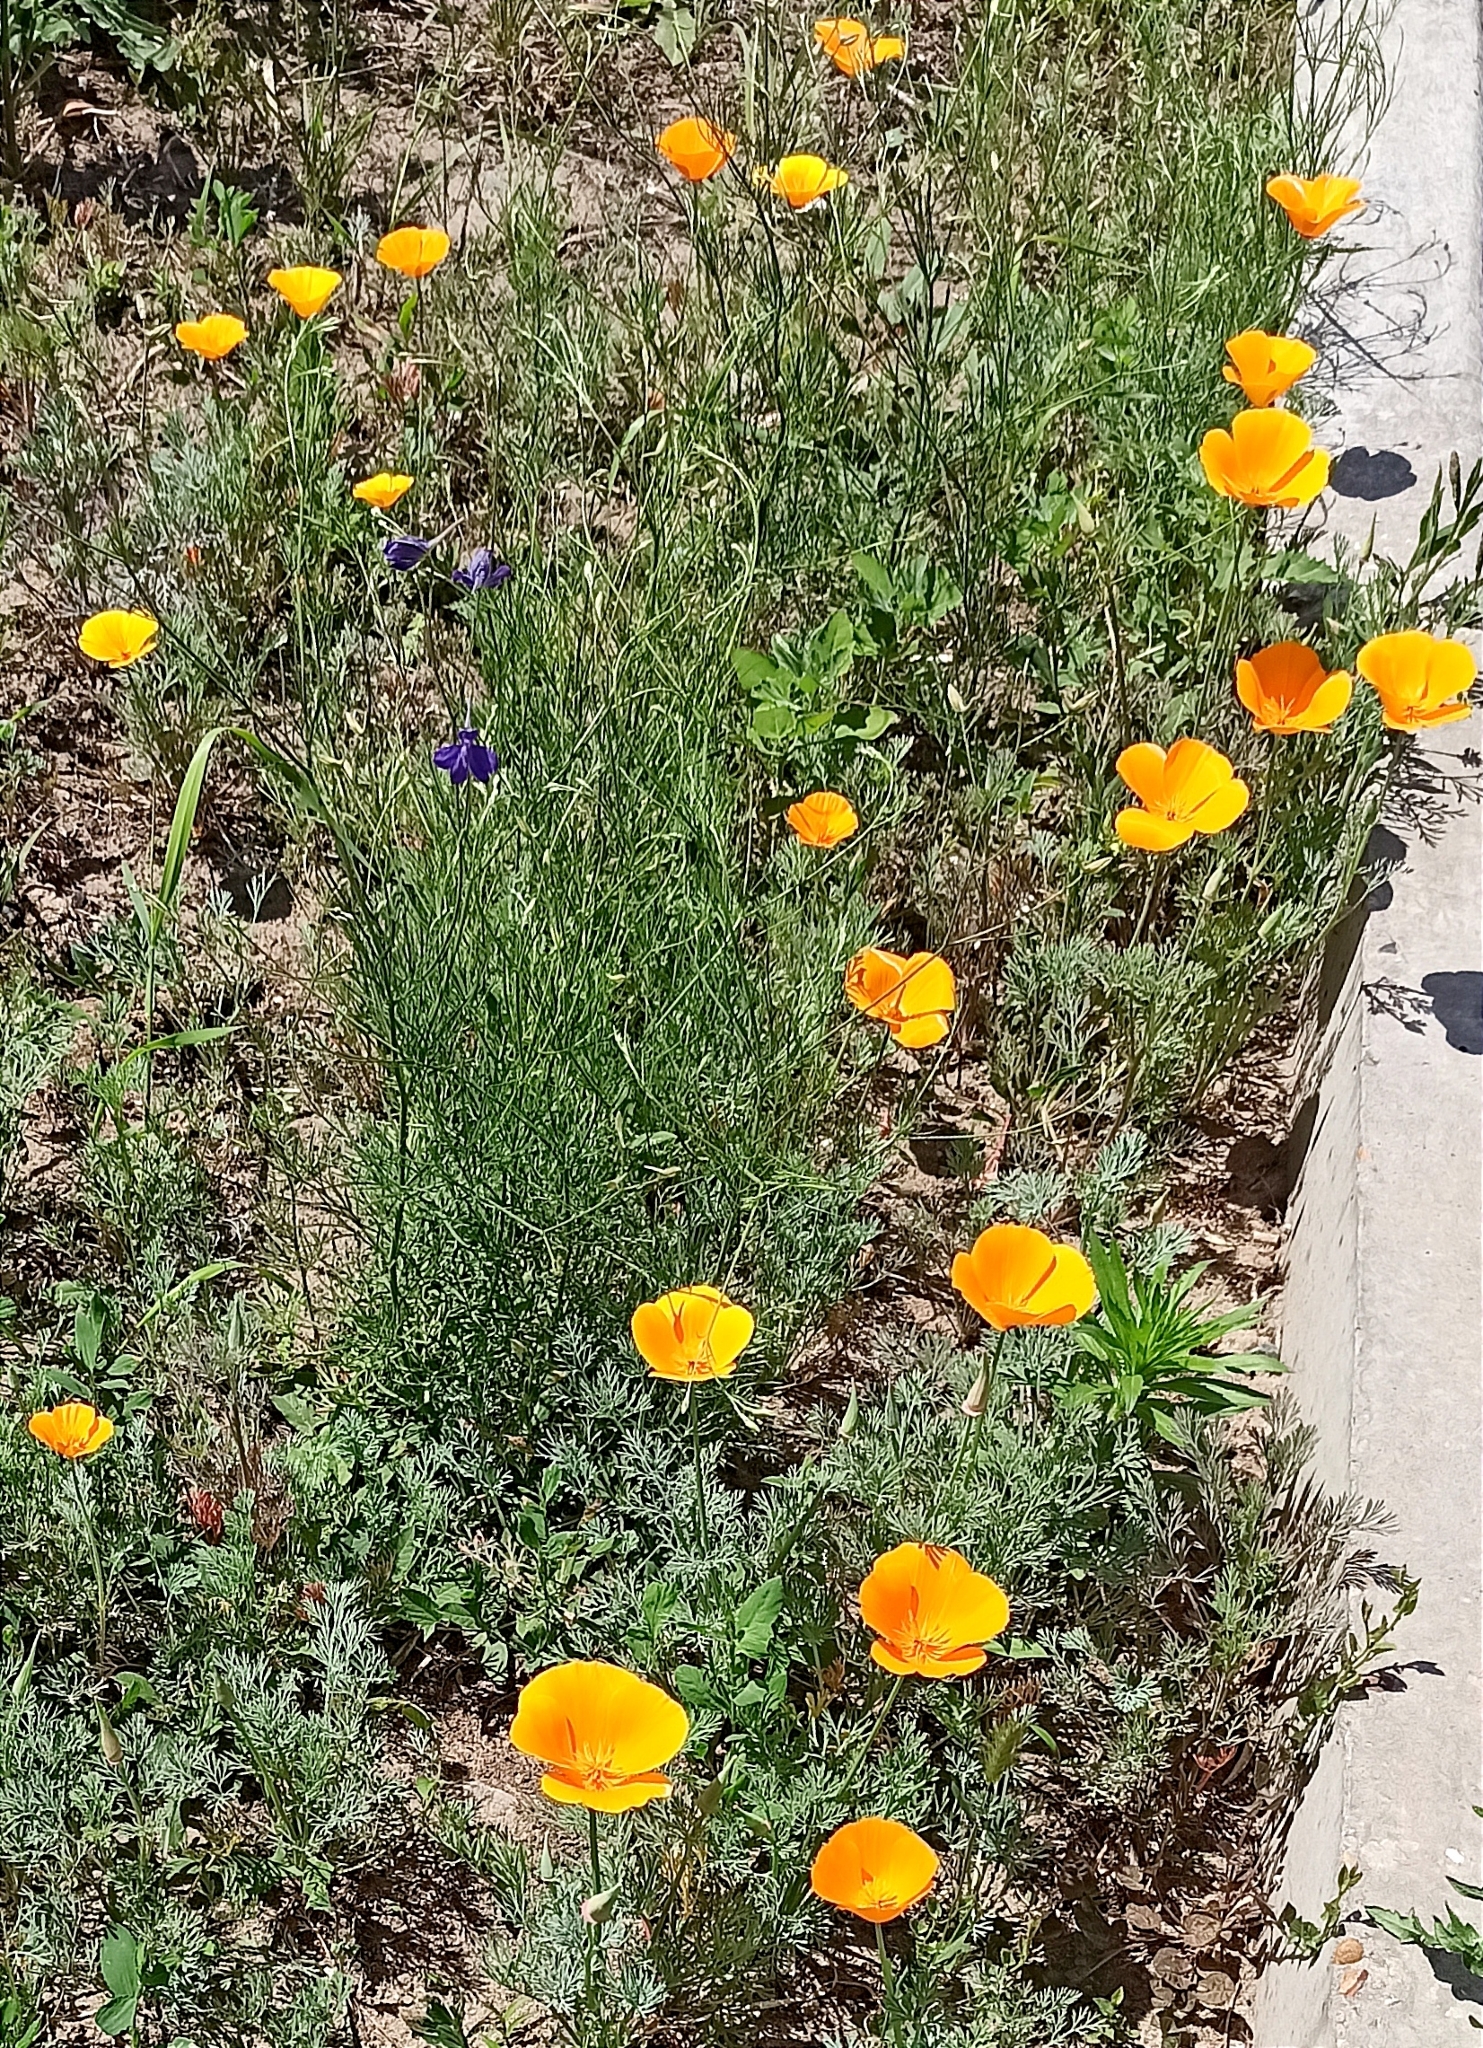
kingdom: Plantae
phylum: Tracheophyta
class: Magnoliopsida
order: Ranunculales
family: Papaveraceae
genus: Eschscholzia
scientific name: Eschscholzia californica
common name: California poppy
